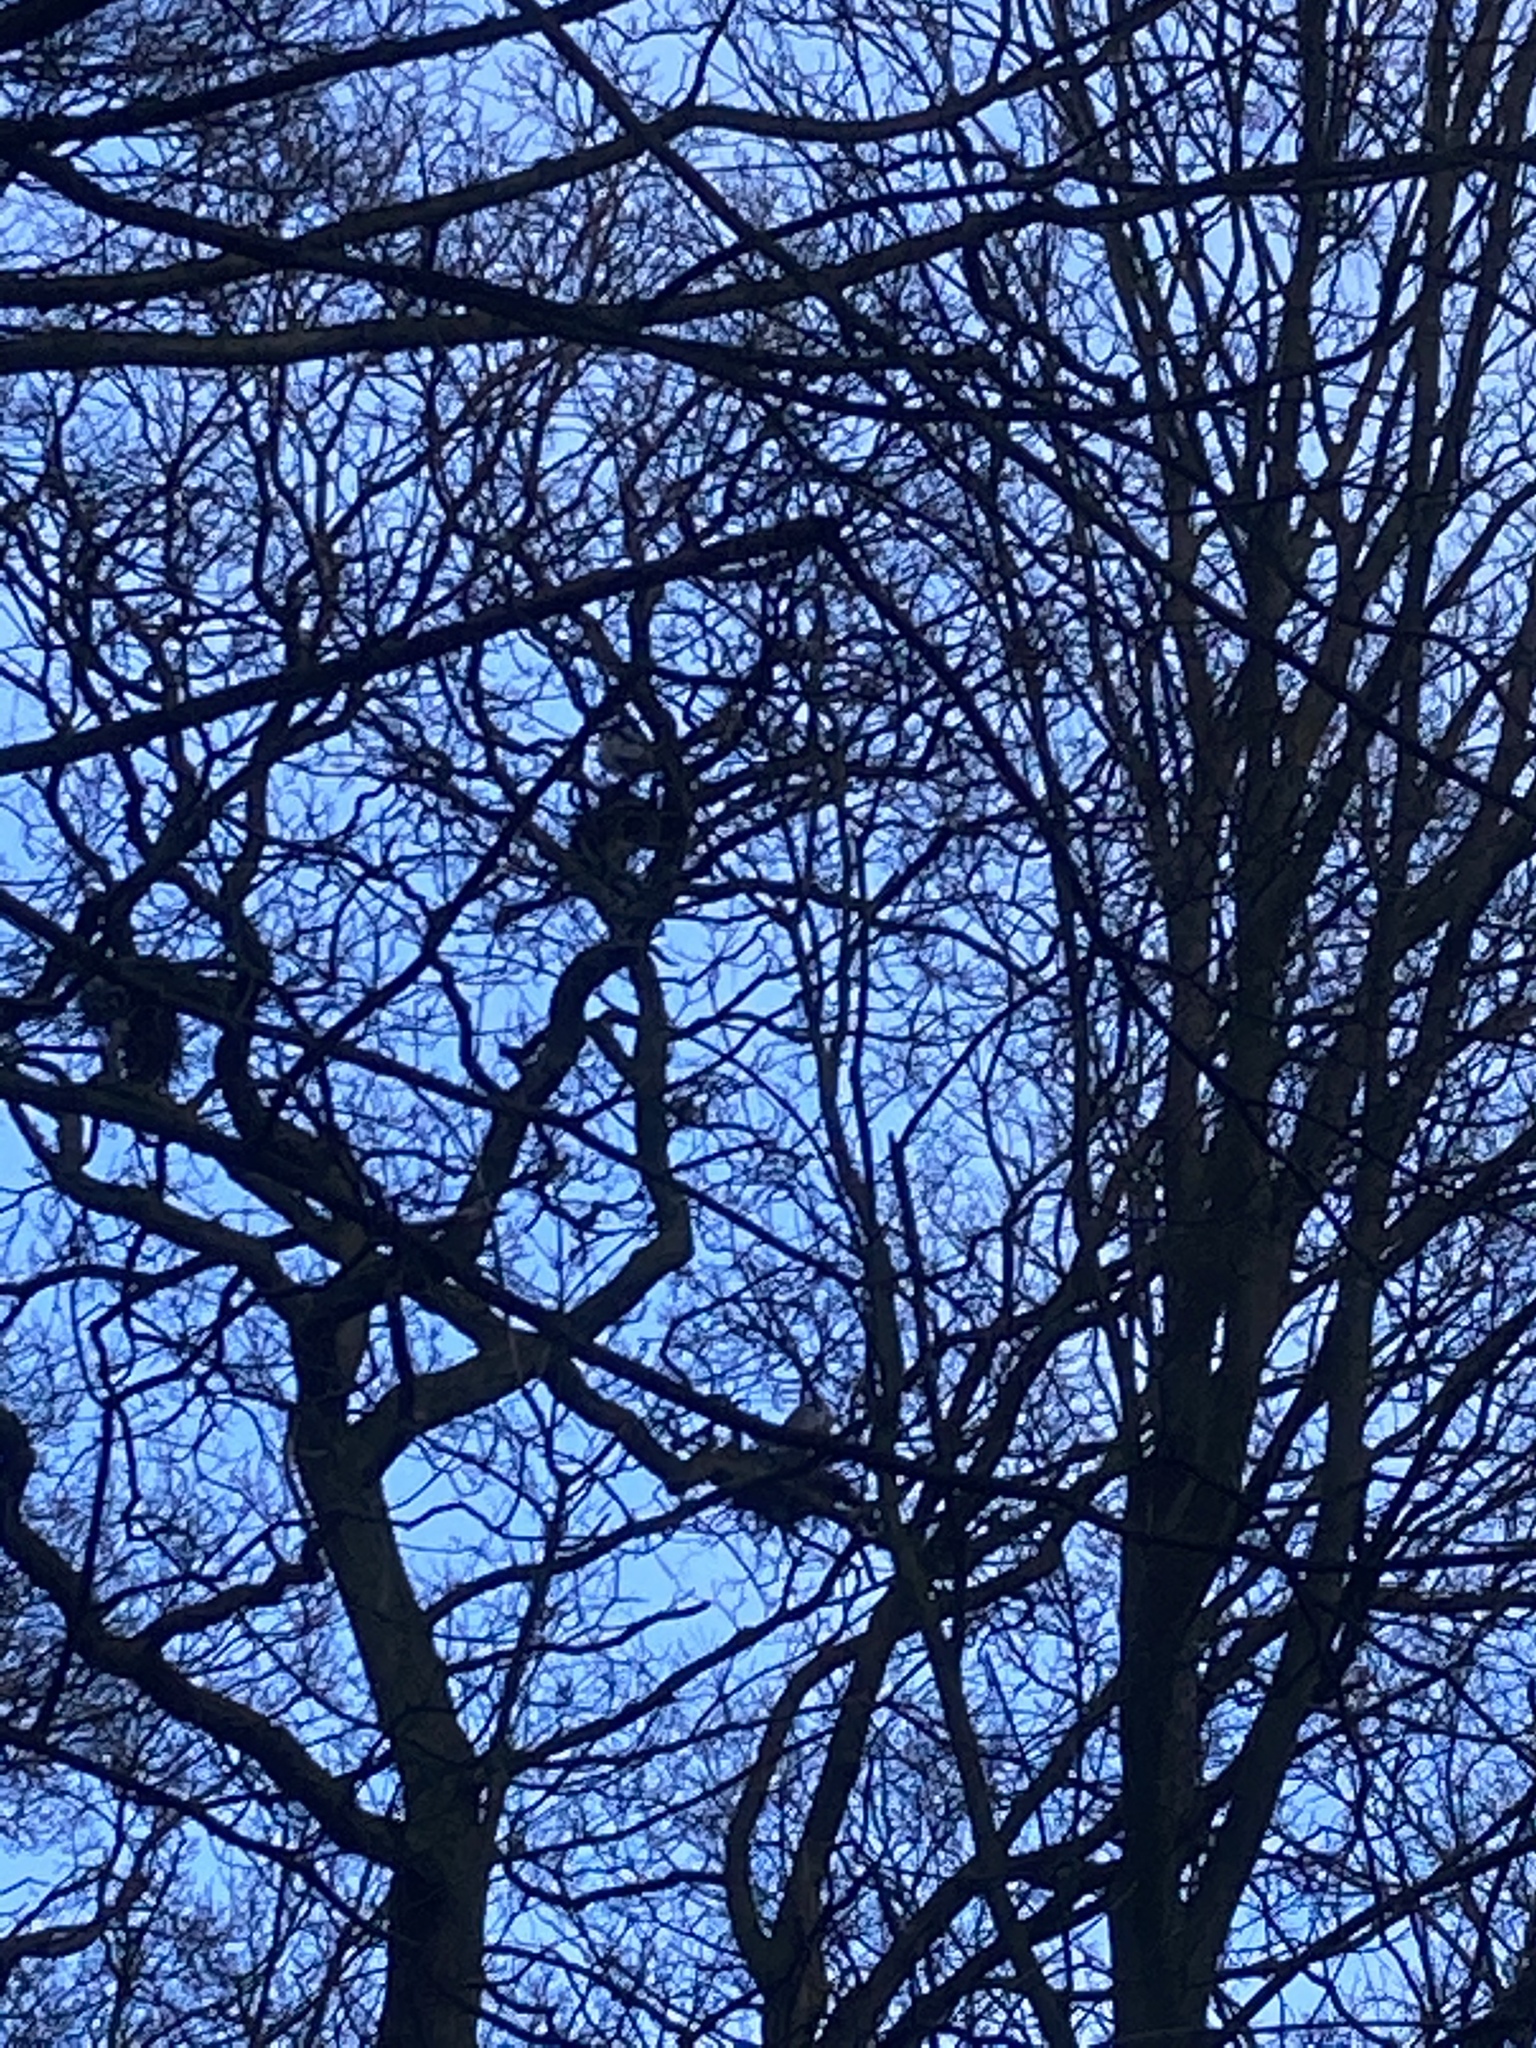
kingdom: Animalia
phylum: Chordata
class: Aves
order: Pelecaniformes
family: Ardeidae
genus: Ardea
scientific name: Ardea cinerea
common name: Grey heron
